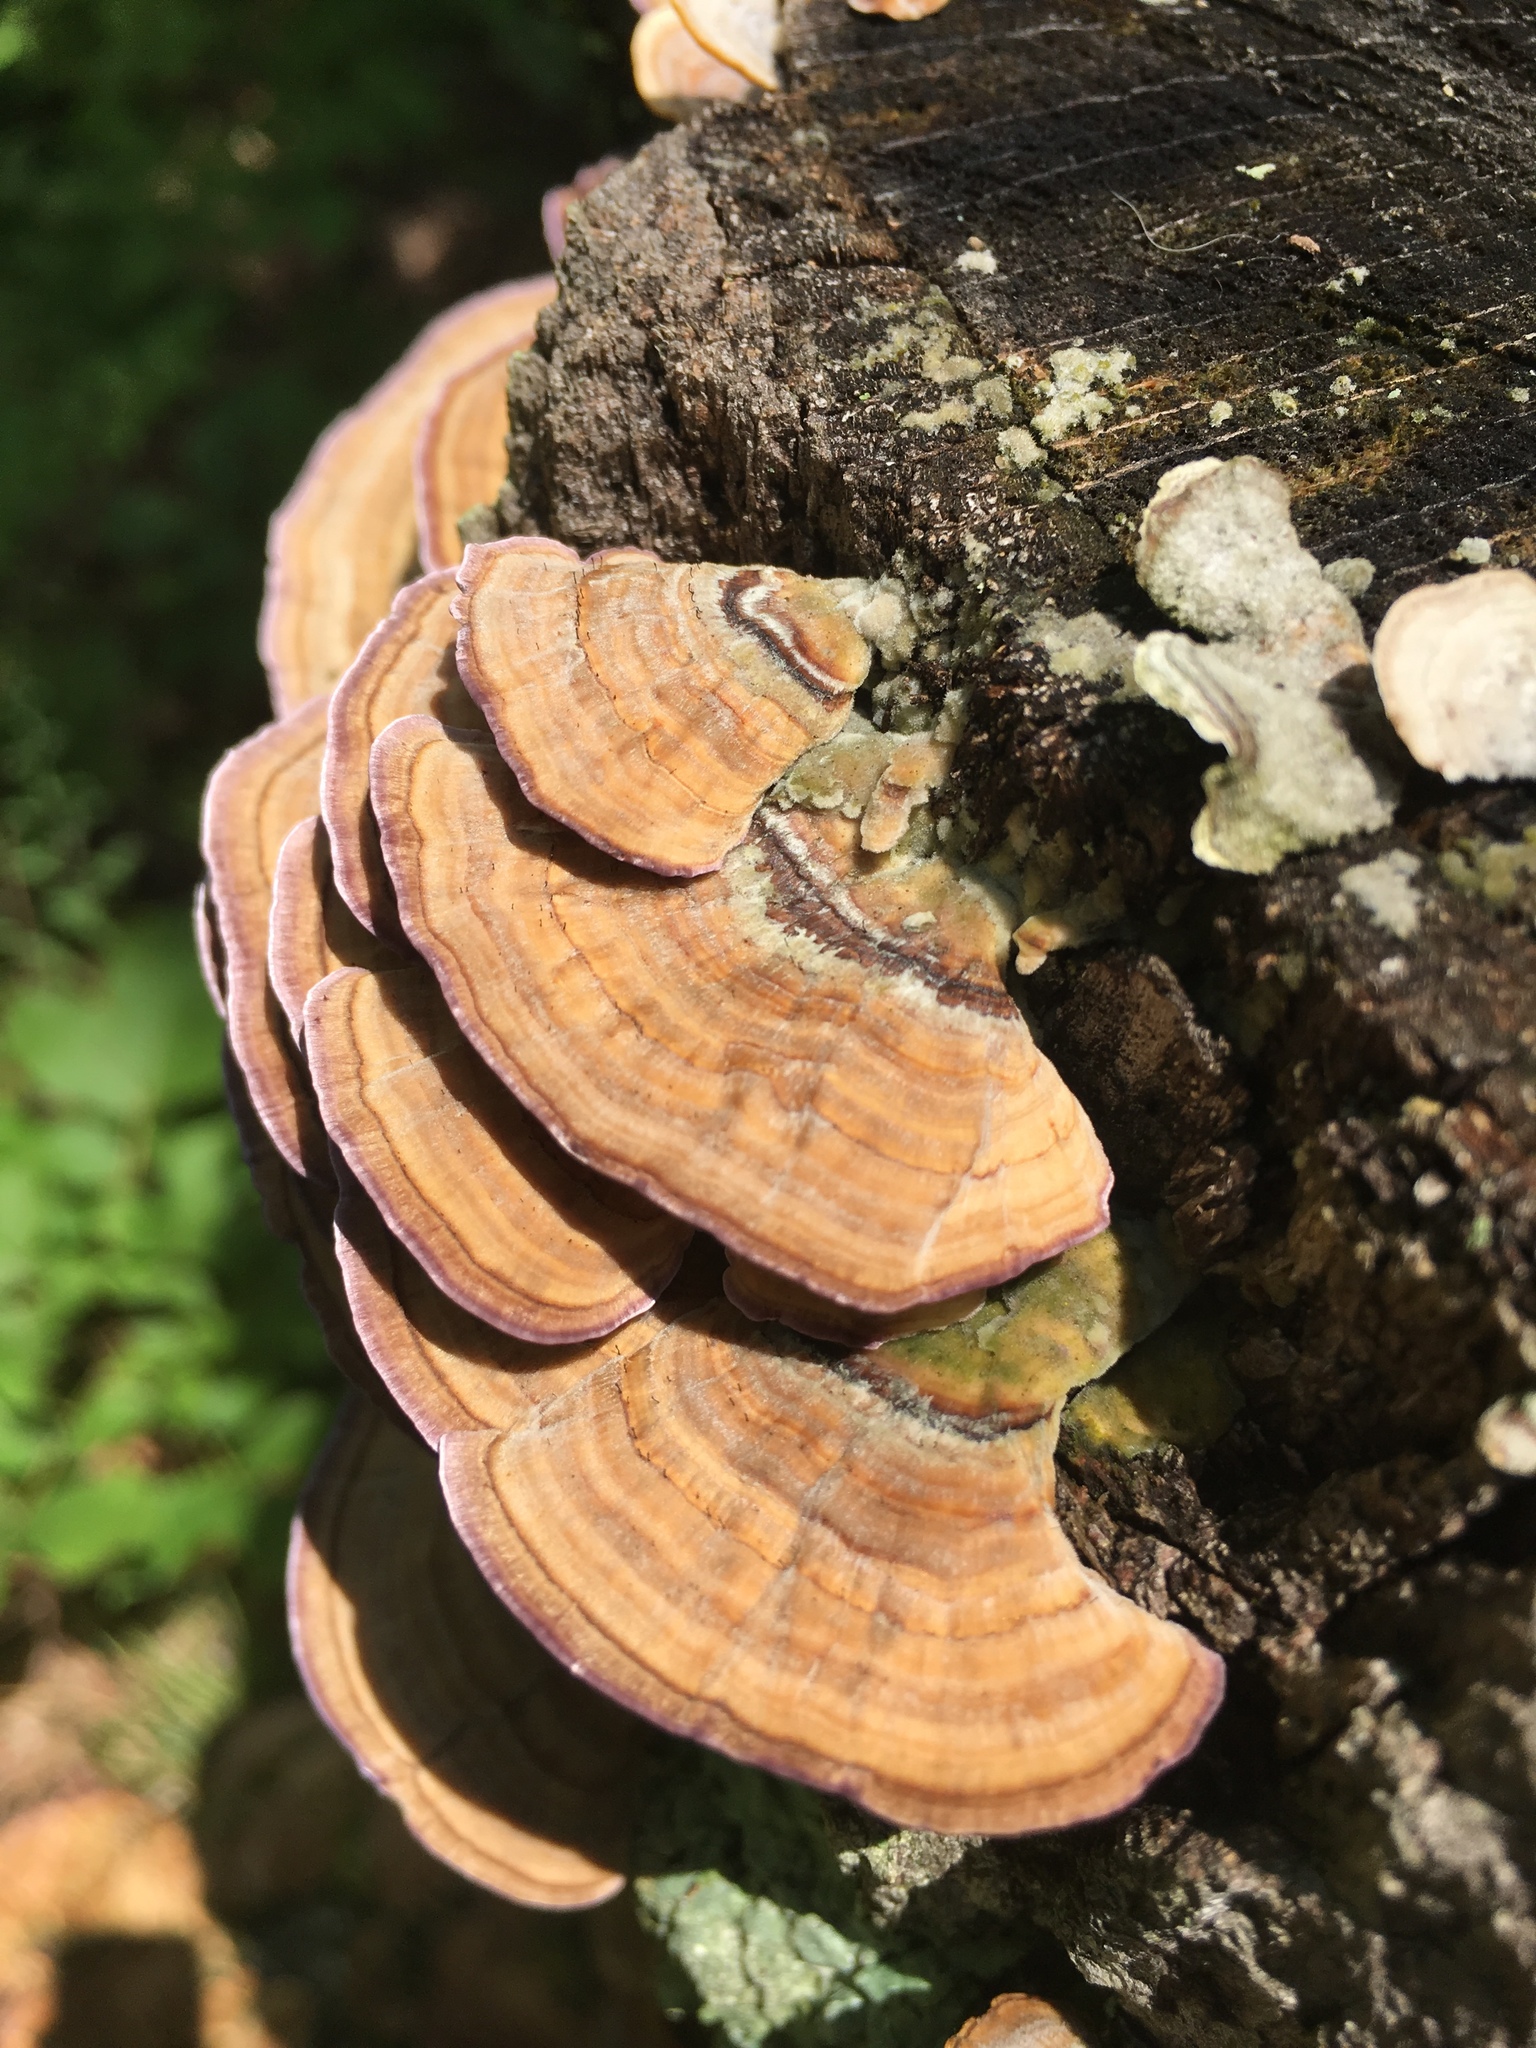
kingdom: Fungi
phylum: Basidiomycota
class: Agaricomycetes
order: Hymenochaetales
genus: Trichaptum
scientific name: Trichaptum biforme
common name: Violet-toothed polypore
